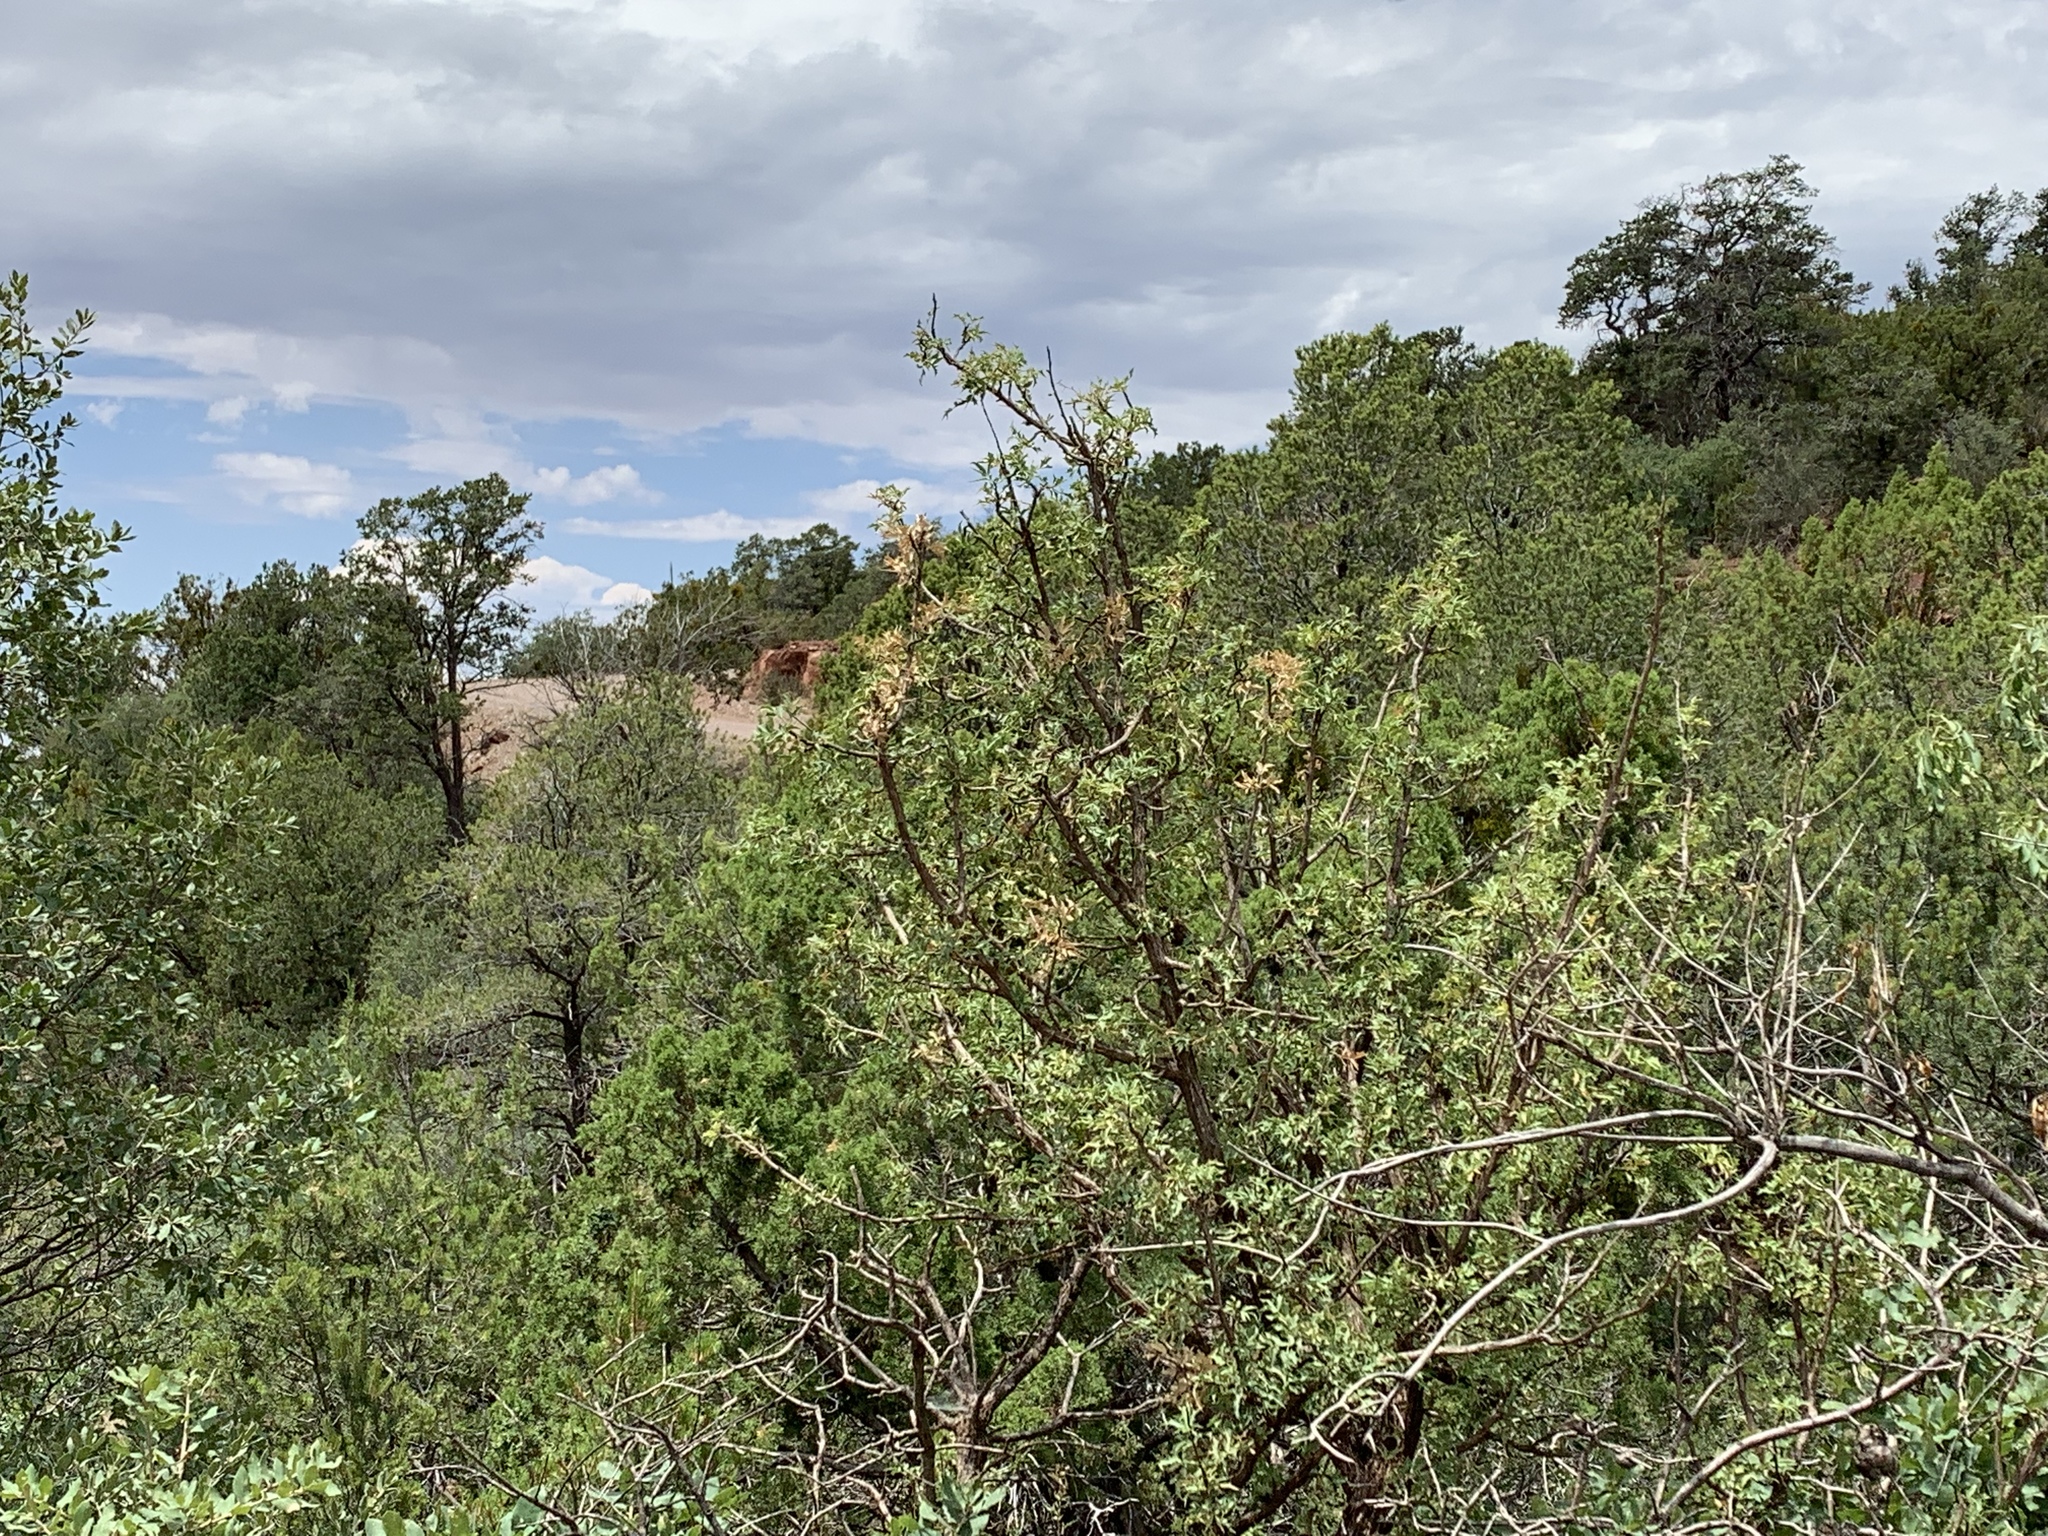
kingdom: Plantae
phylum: Tracheophyta
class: Magnoliopsida
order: Ranunculales
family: Berberidaceae
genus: Alloberberis
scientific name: Alloberberis haematocarpa
